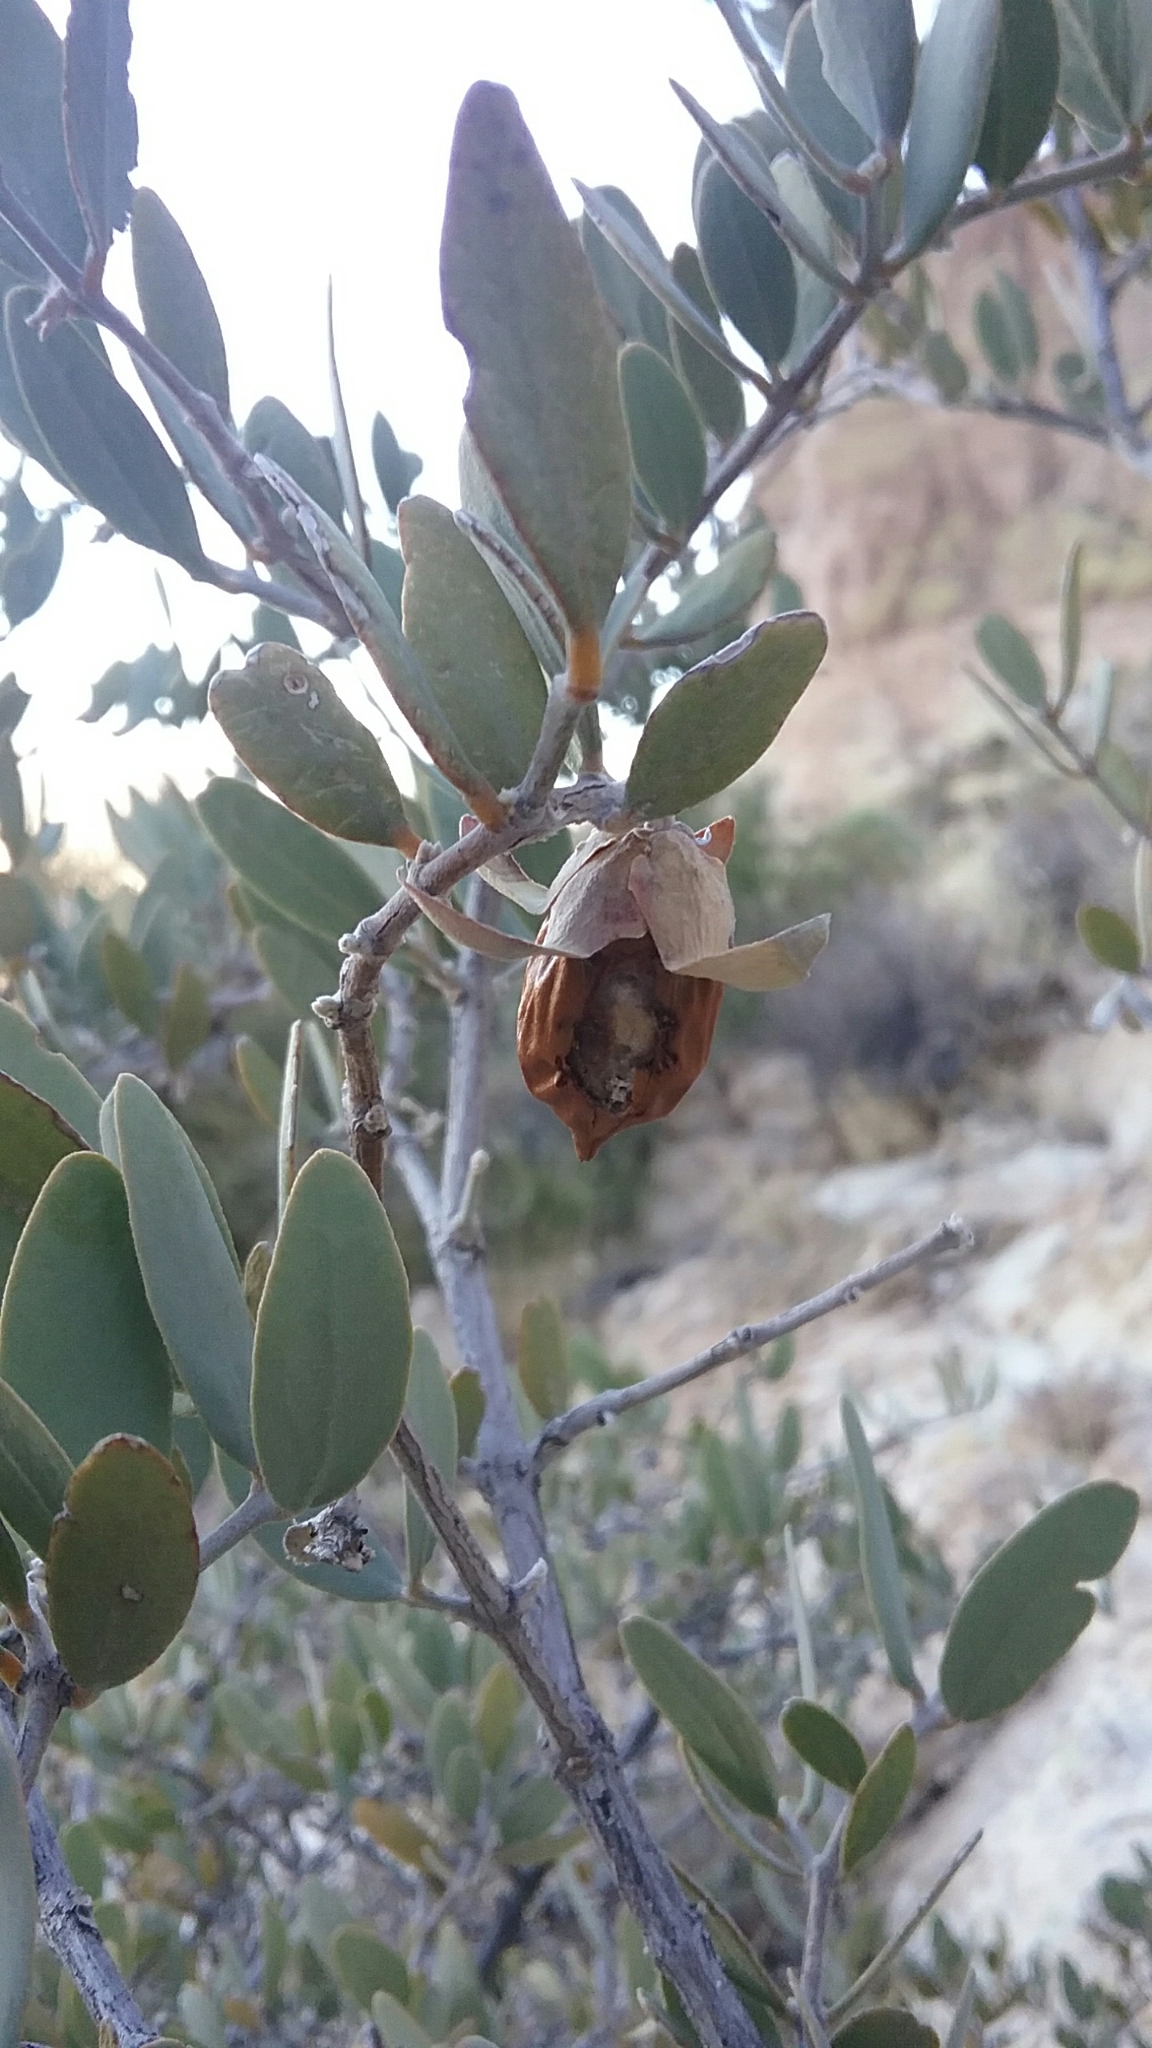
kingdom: Plantae
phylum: Tracheophyta
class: Magnoliopsida
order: Caryophyllales
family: Simmondsiaceae
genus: Simmondsia
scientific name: Simmondsia chinensis
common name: Jojoba
